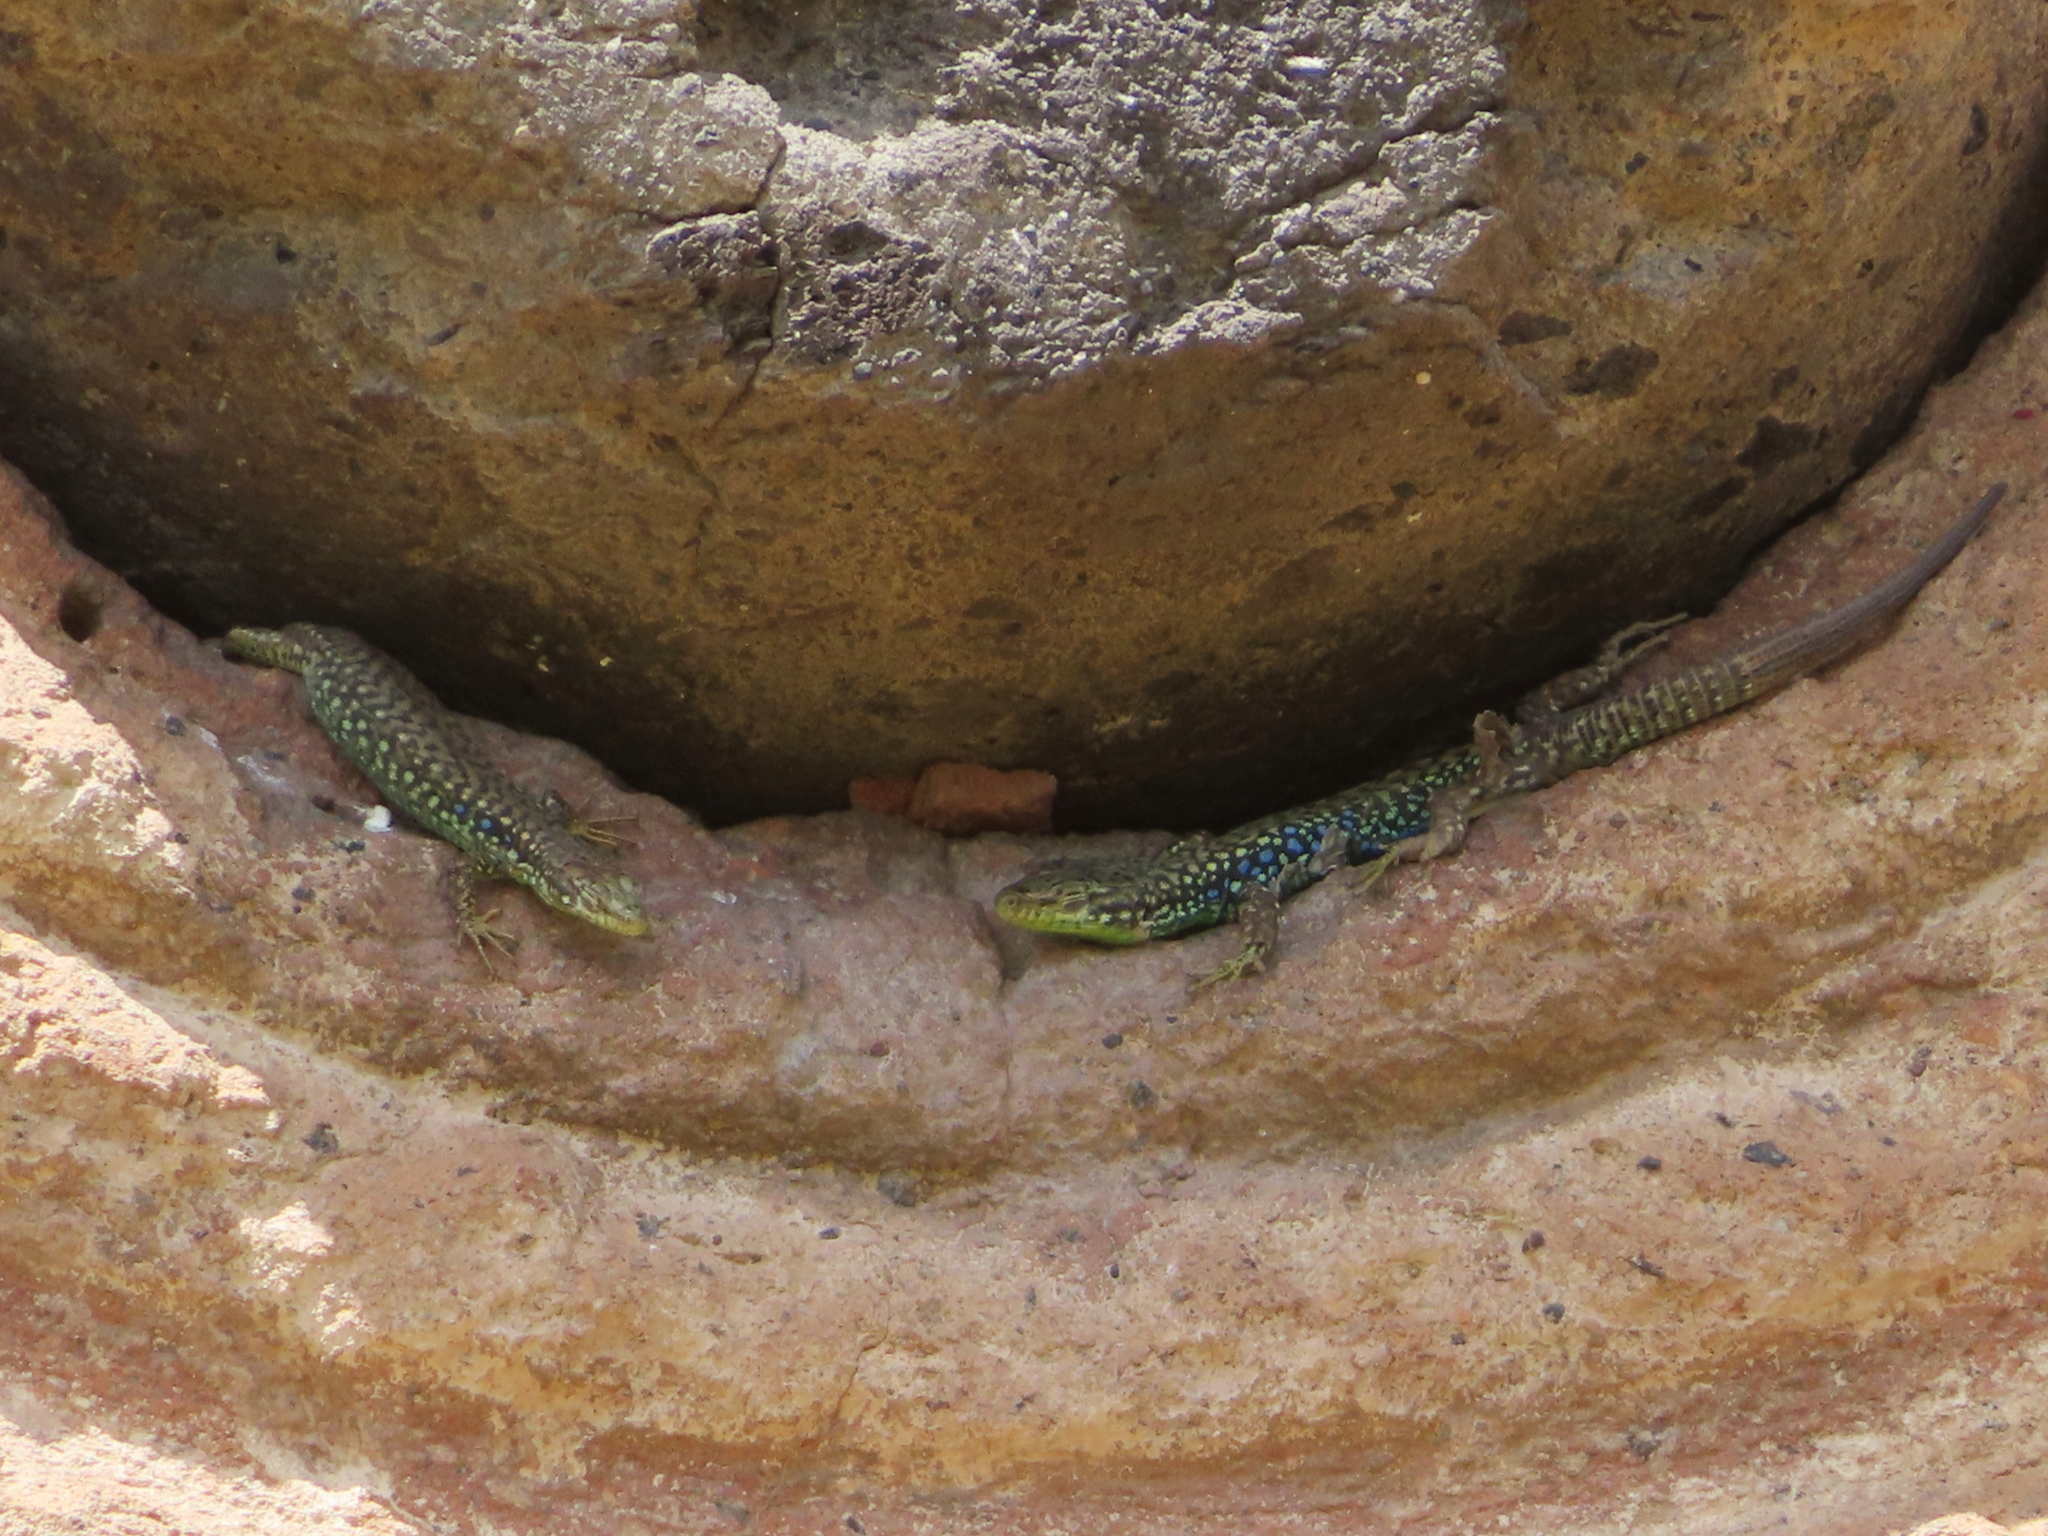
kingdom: Animalia
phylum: Chordata
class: Squamata
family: Lacertidae
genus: Darevskia
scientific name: Darevskia
